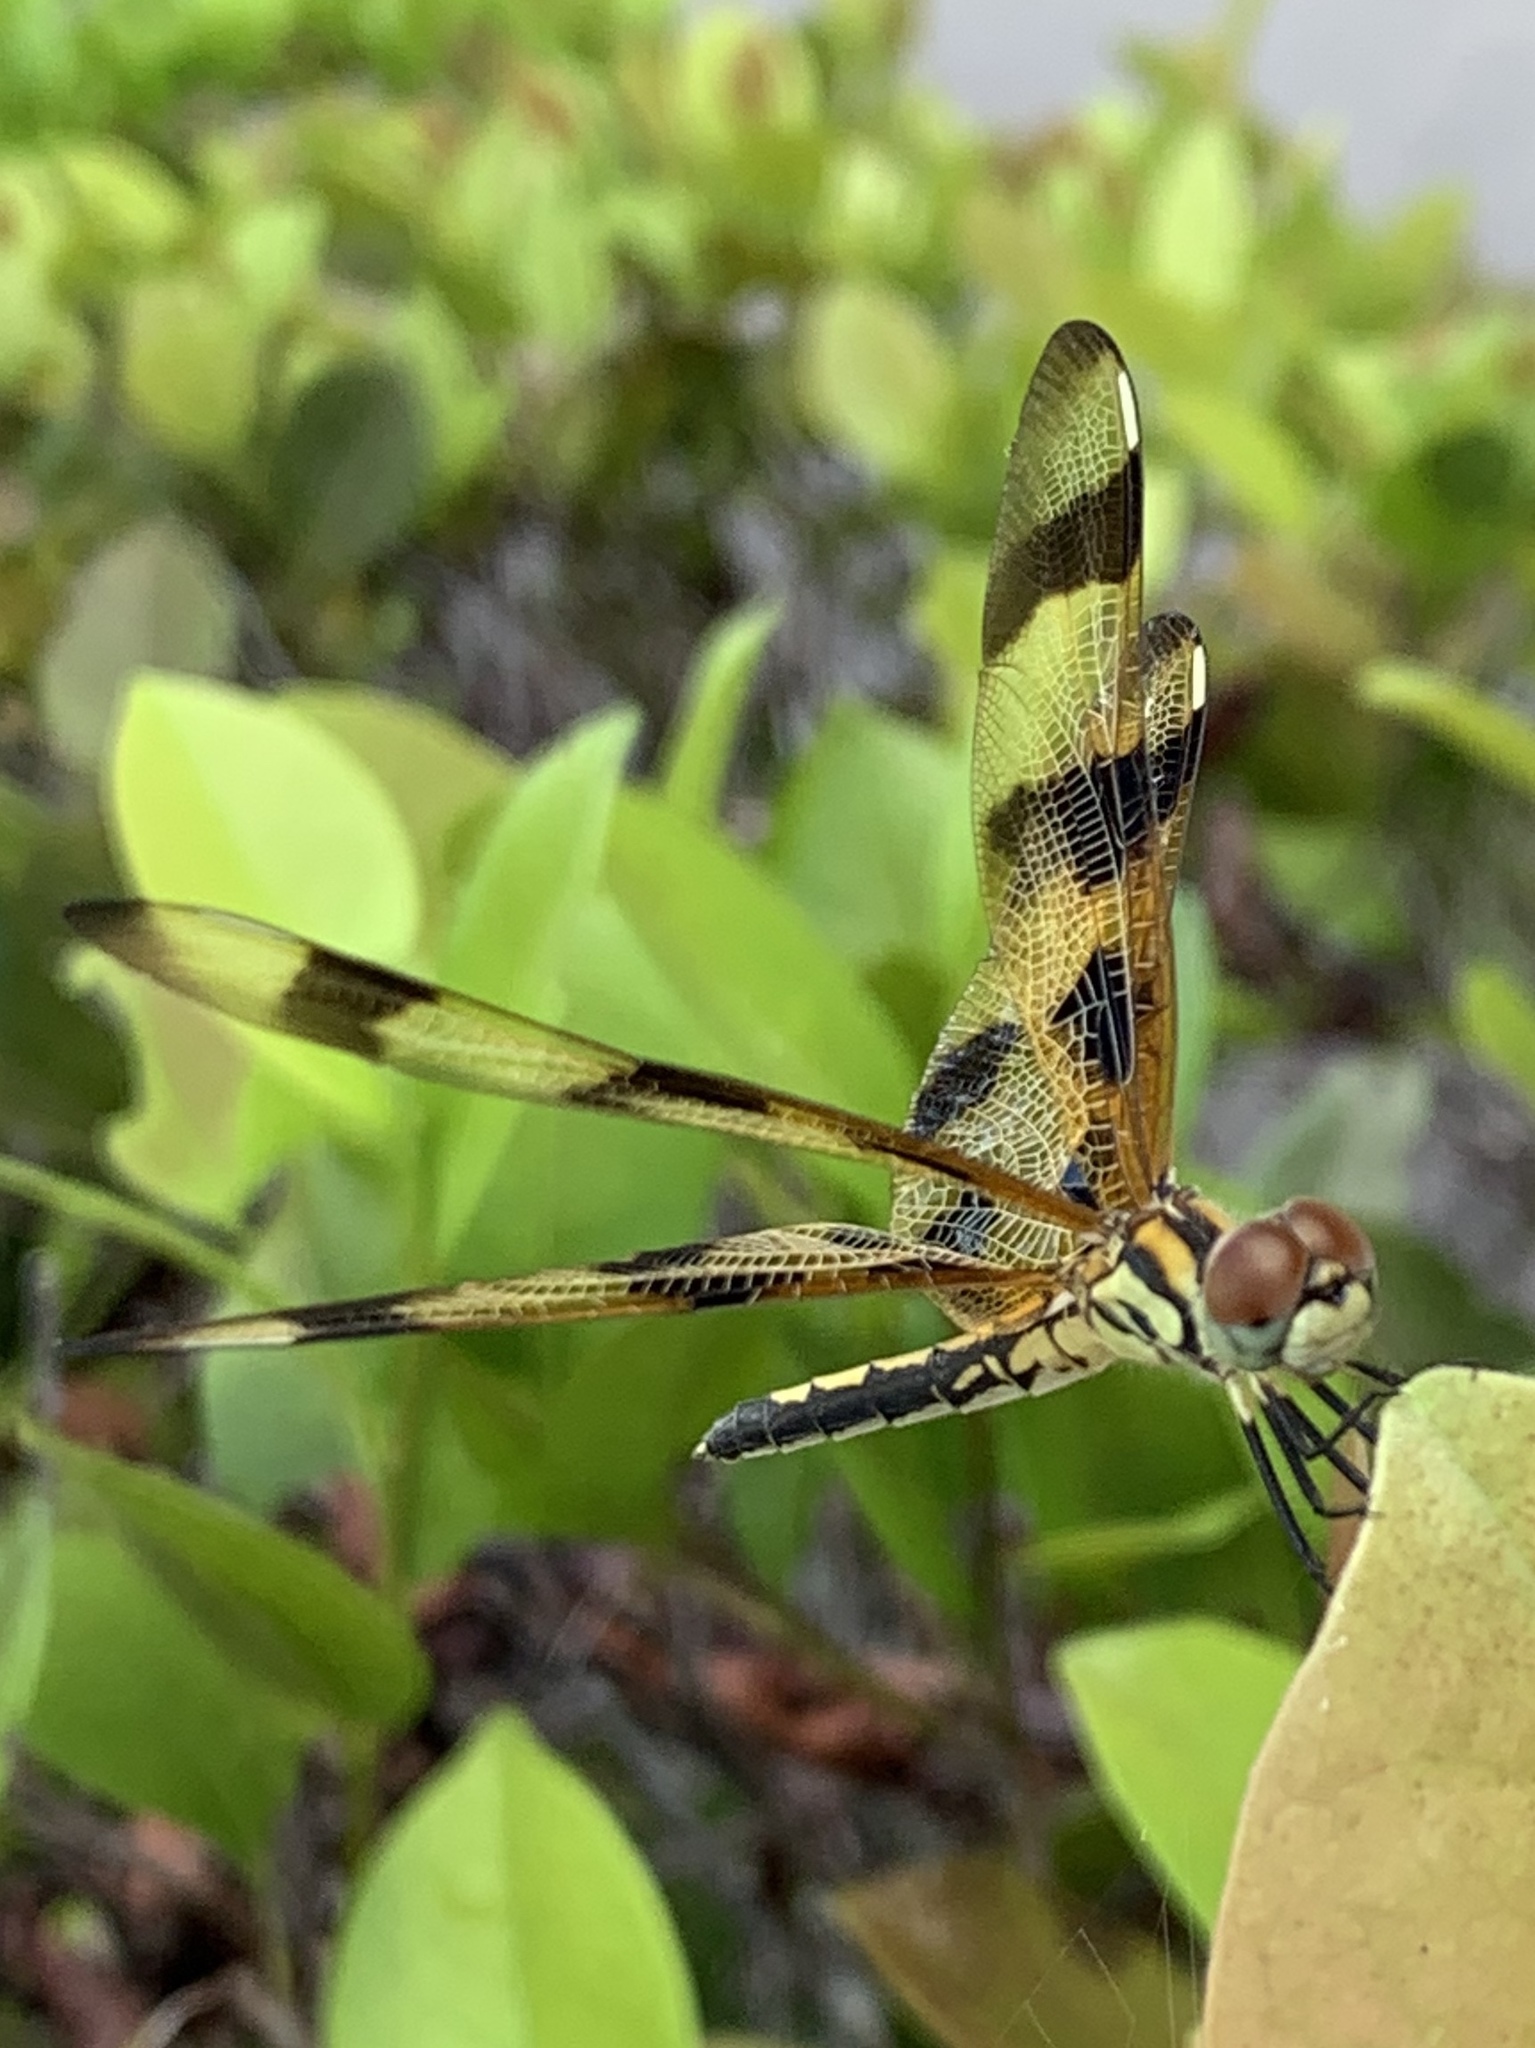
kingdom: Animalia
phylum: Arthropoda
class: Insecta
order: Odonata
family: Libellulidae
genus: Celithemis
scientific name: Celithemis eponina
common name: Halloween pennant
